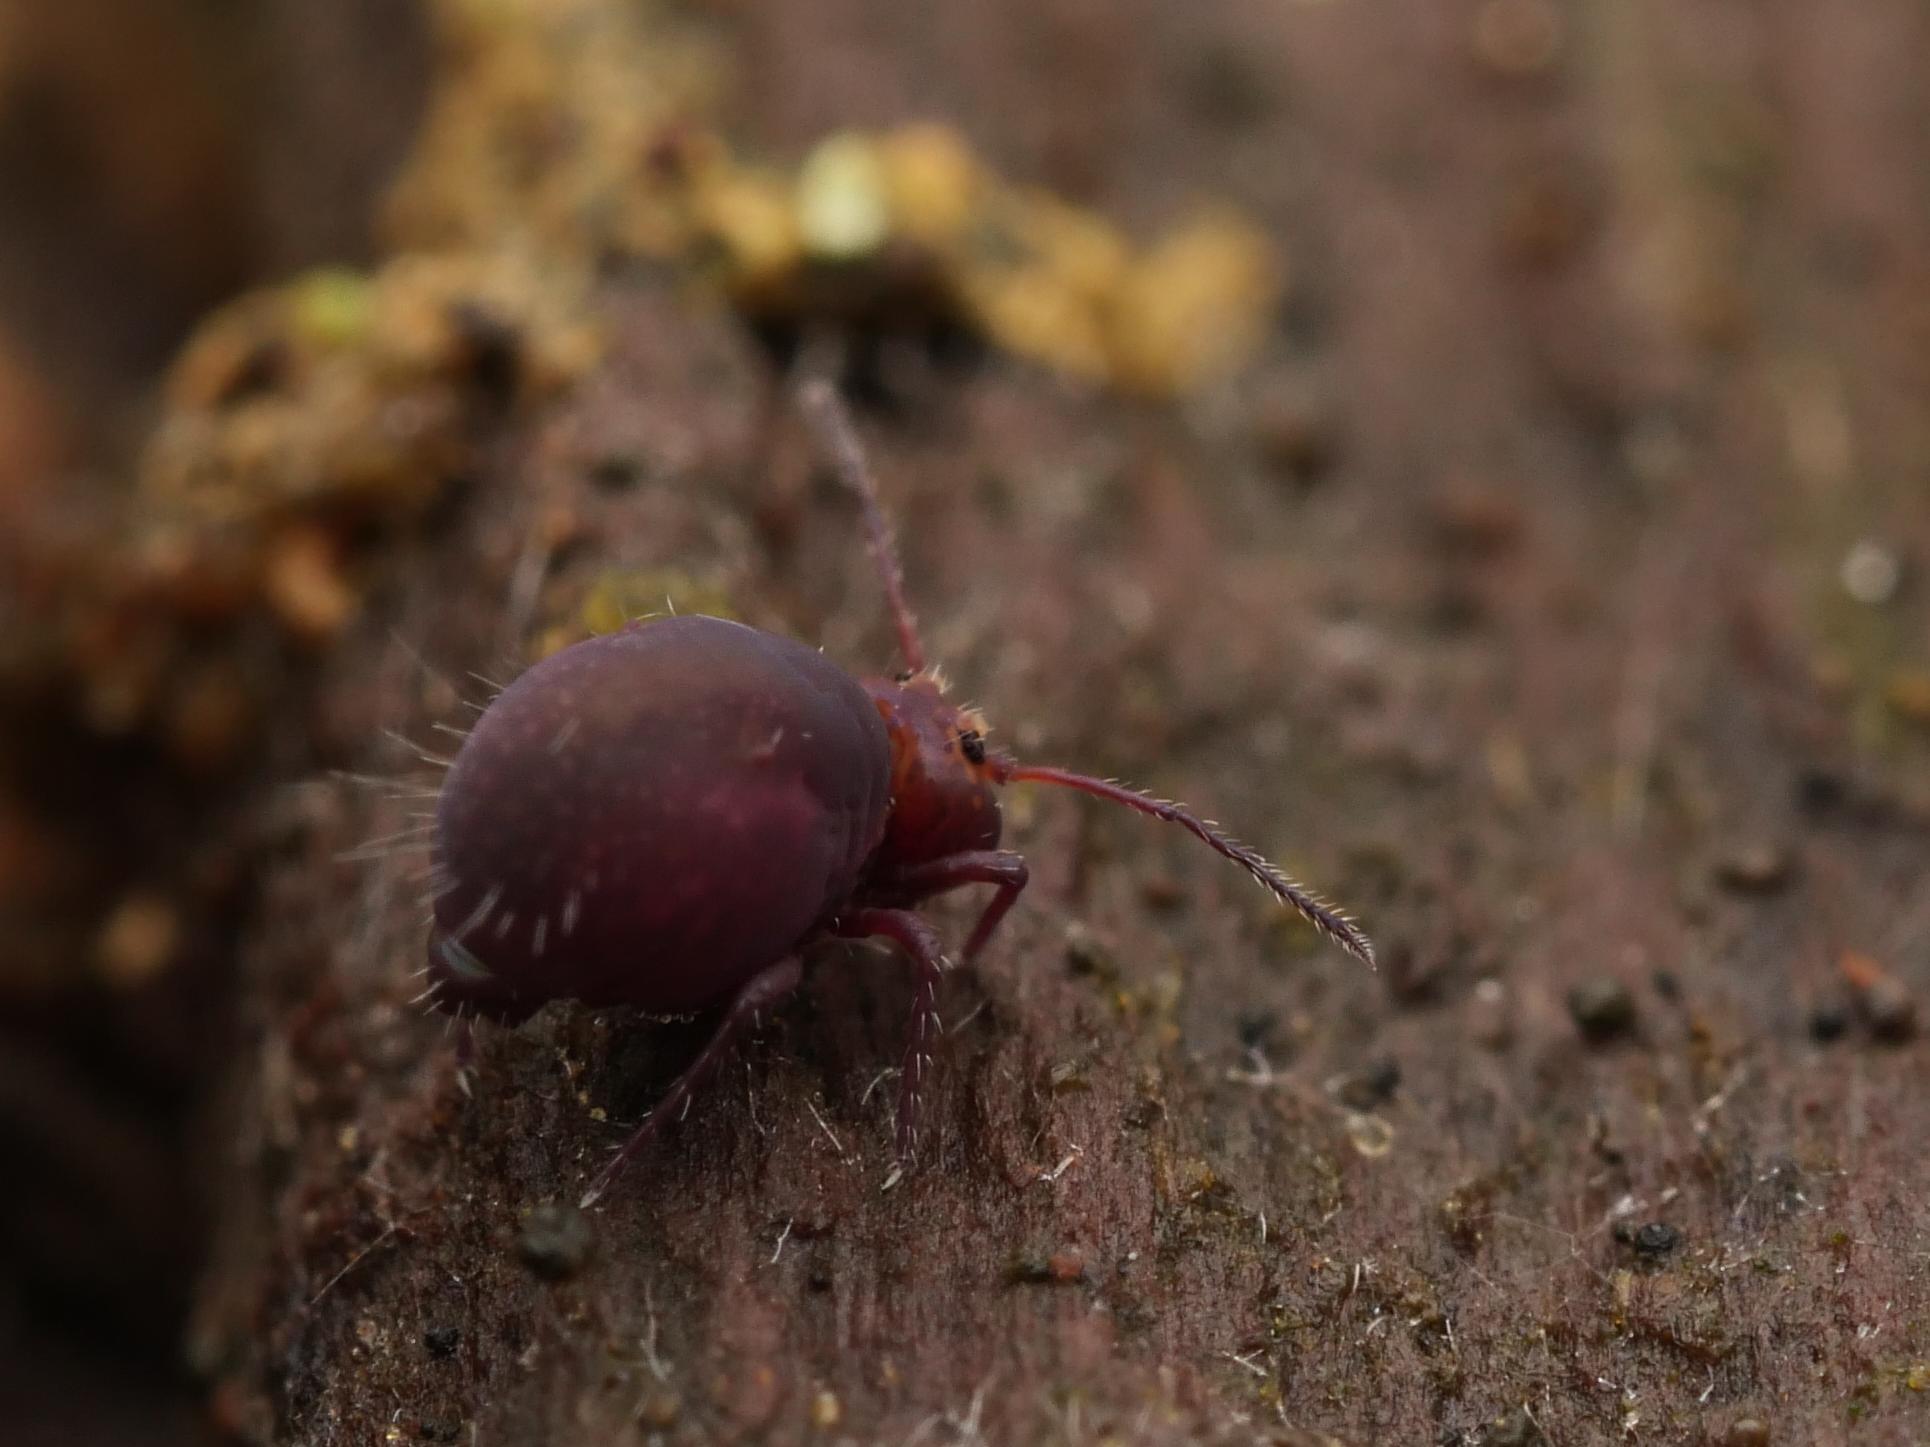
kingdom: Animalia
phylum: Arthropoda
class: Collembola
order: Symphypleona
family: Dicyrtomidae
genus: Dicyrtoma
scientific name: Dicyrtoma fusca
